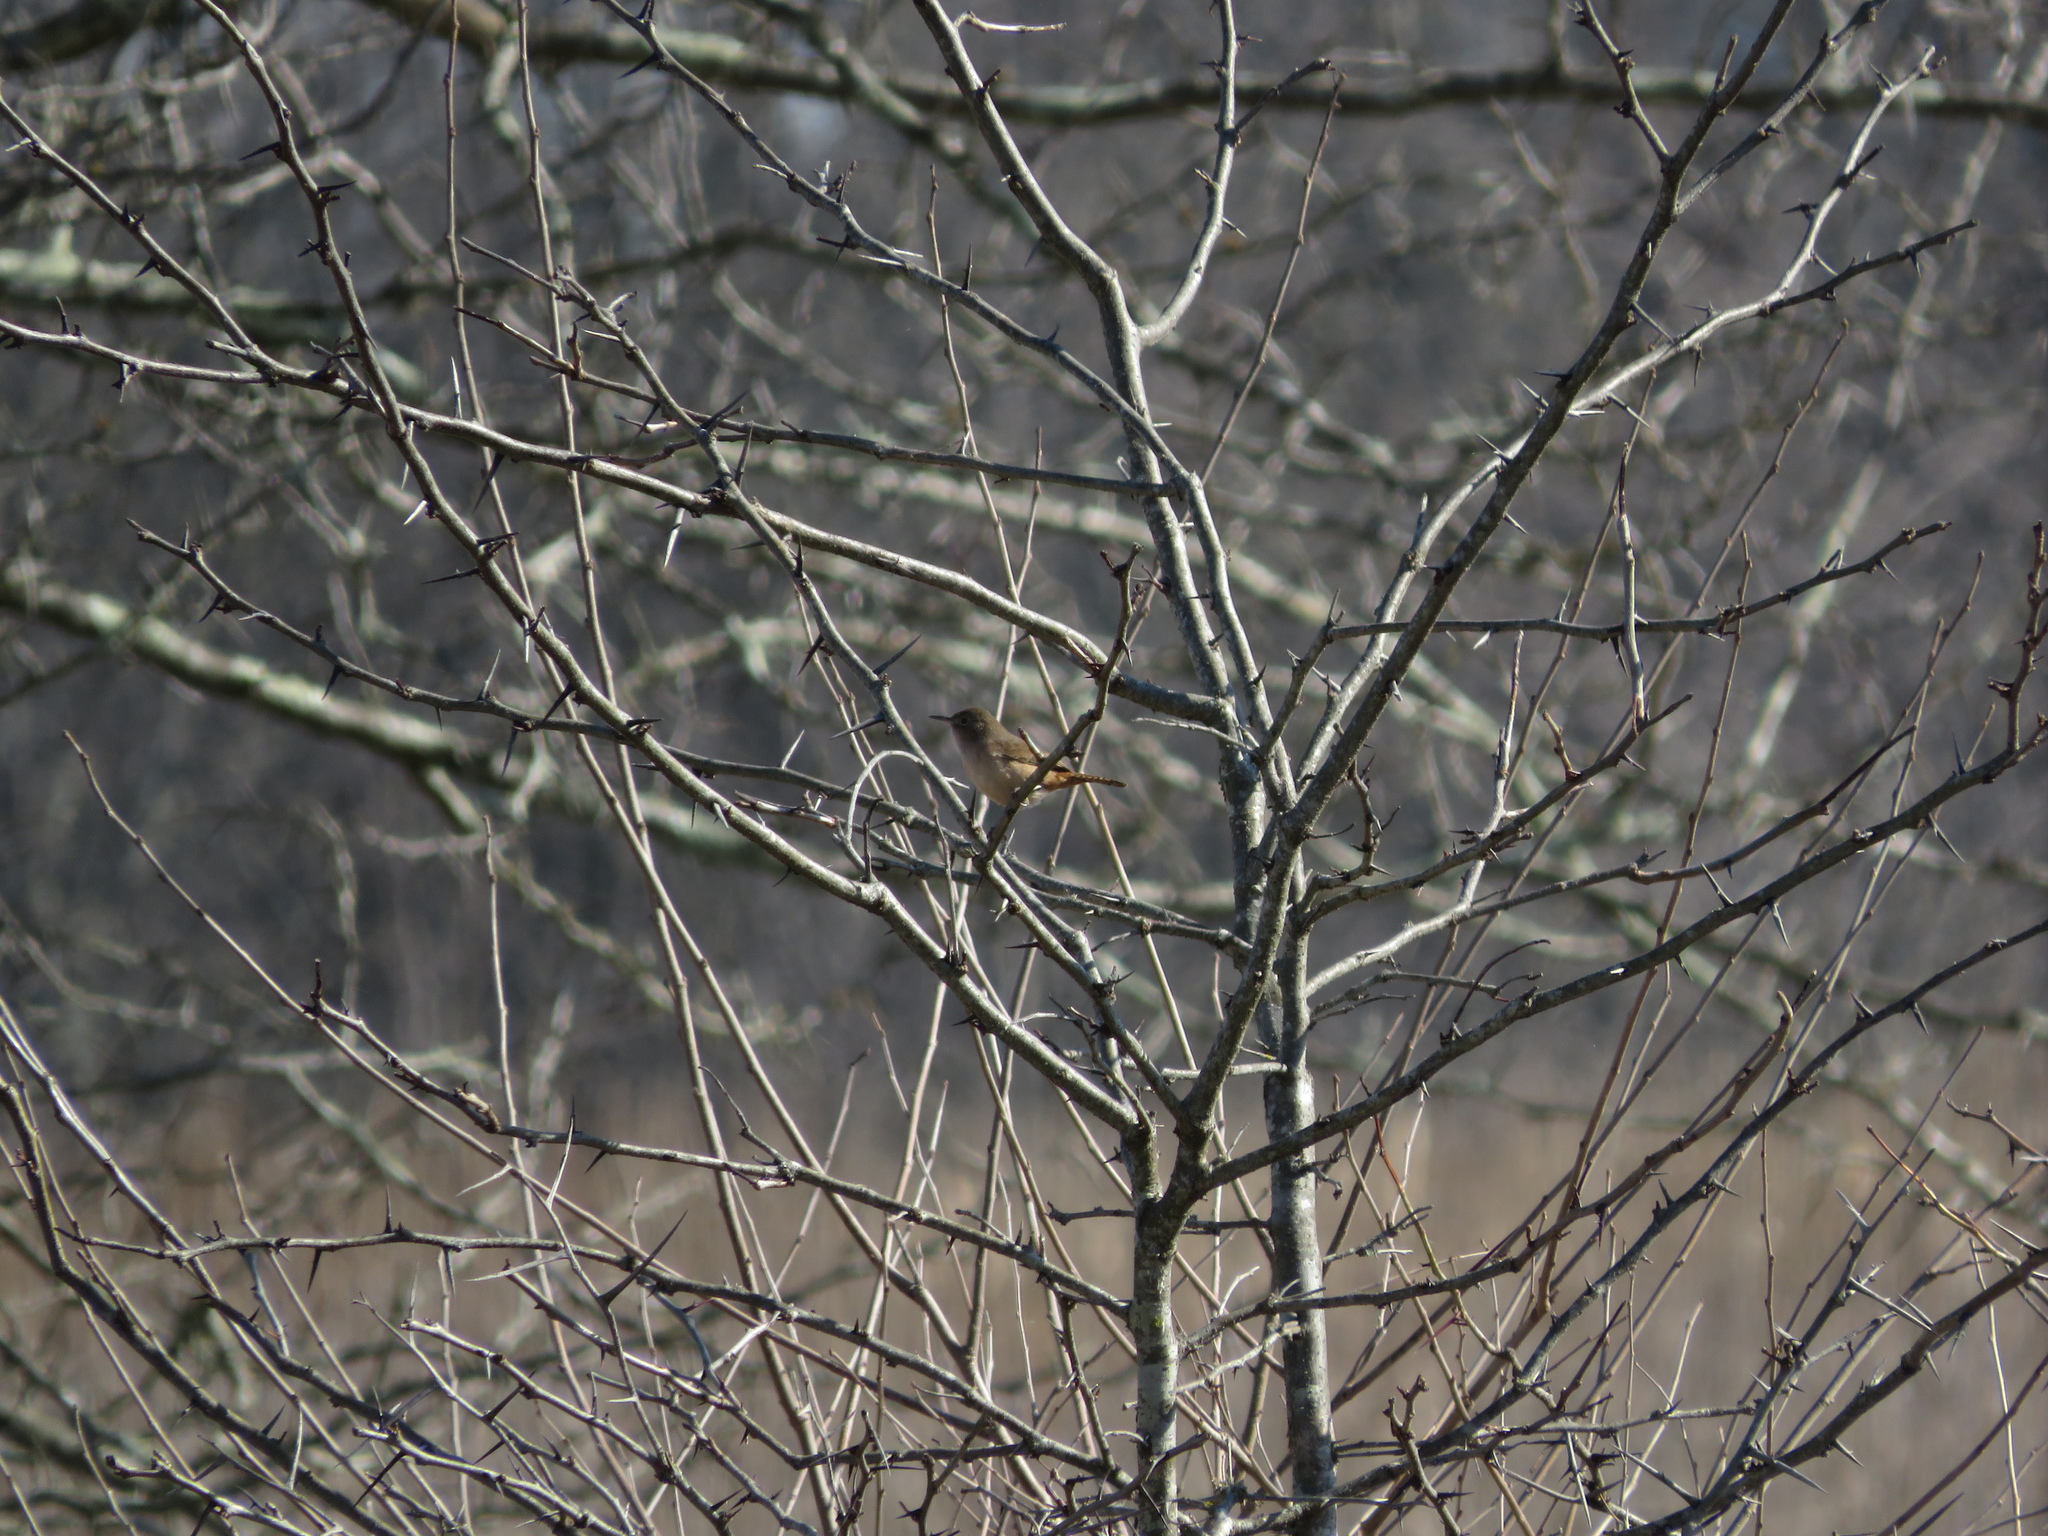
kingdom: Animalia
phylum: Chordata
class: Aves
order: Passeriformes
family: Troglodytidae
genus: Troglodytes
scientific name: Troglodytes aedon
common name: House wren
